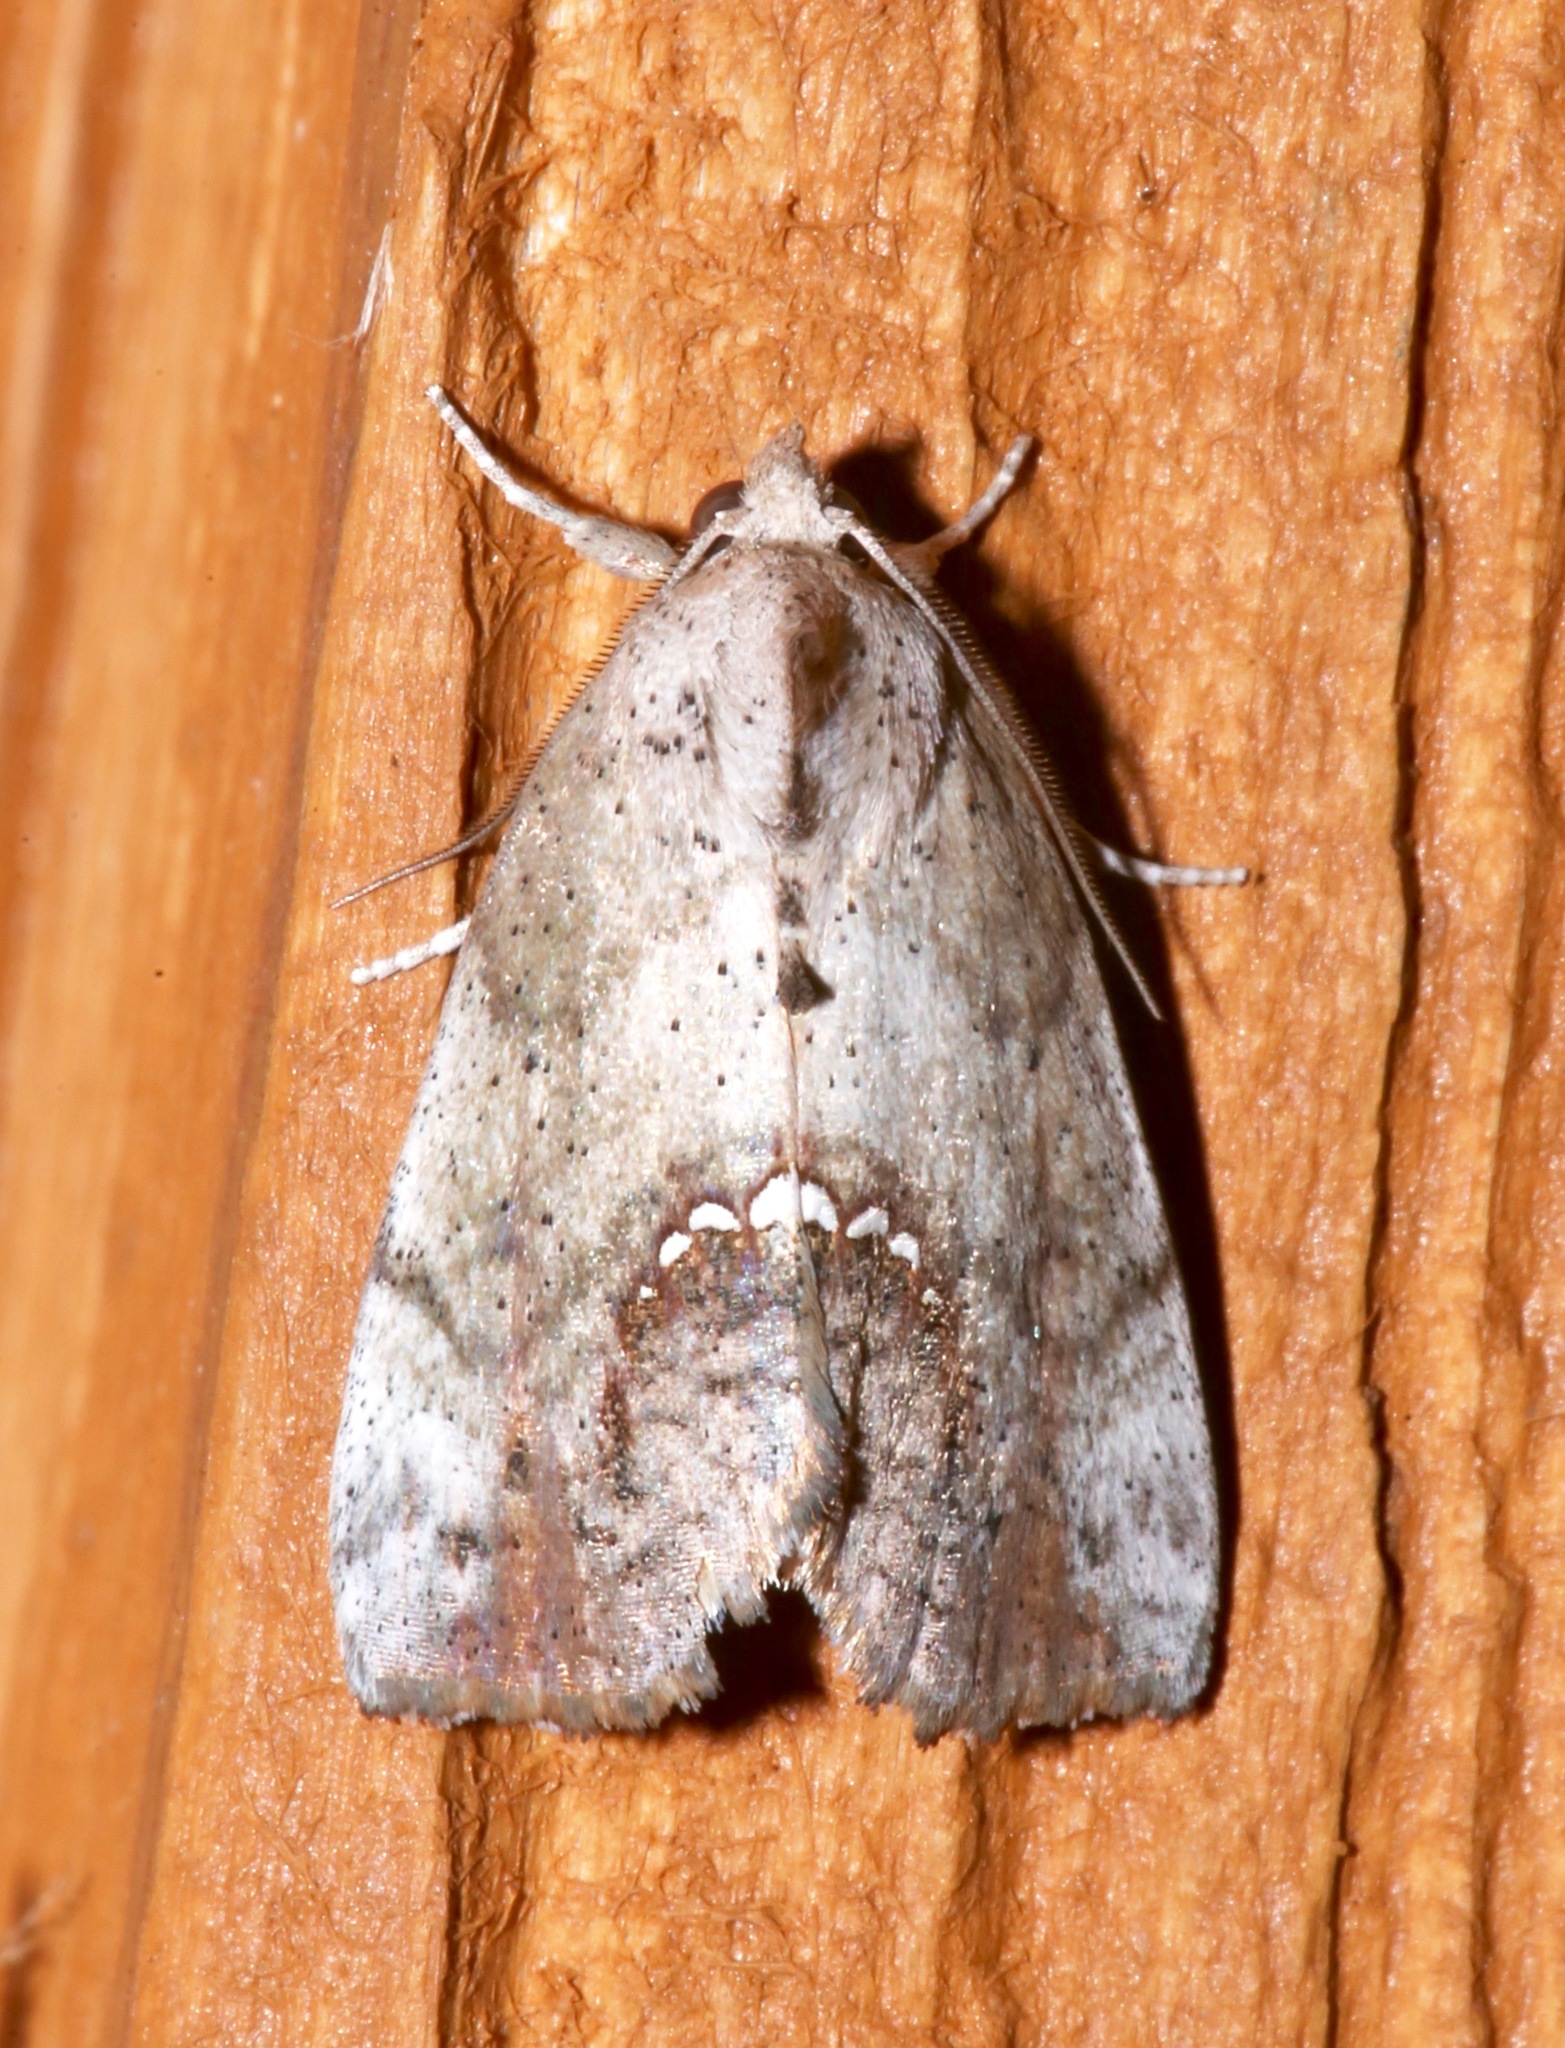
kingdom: Animalia
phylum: Arthropoda
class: Insecta
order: Lepidoptera
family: Erebidae
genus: Hypsoropha
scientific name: Hypsoropha hormos
